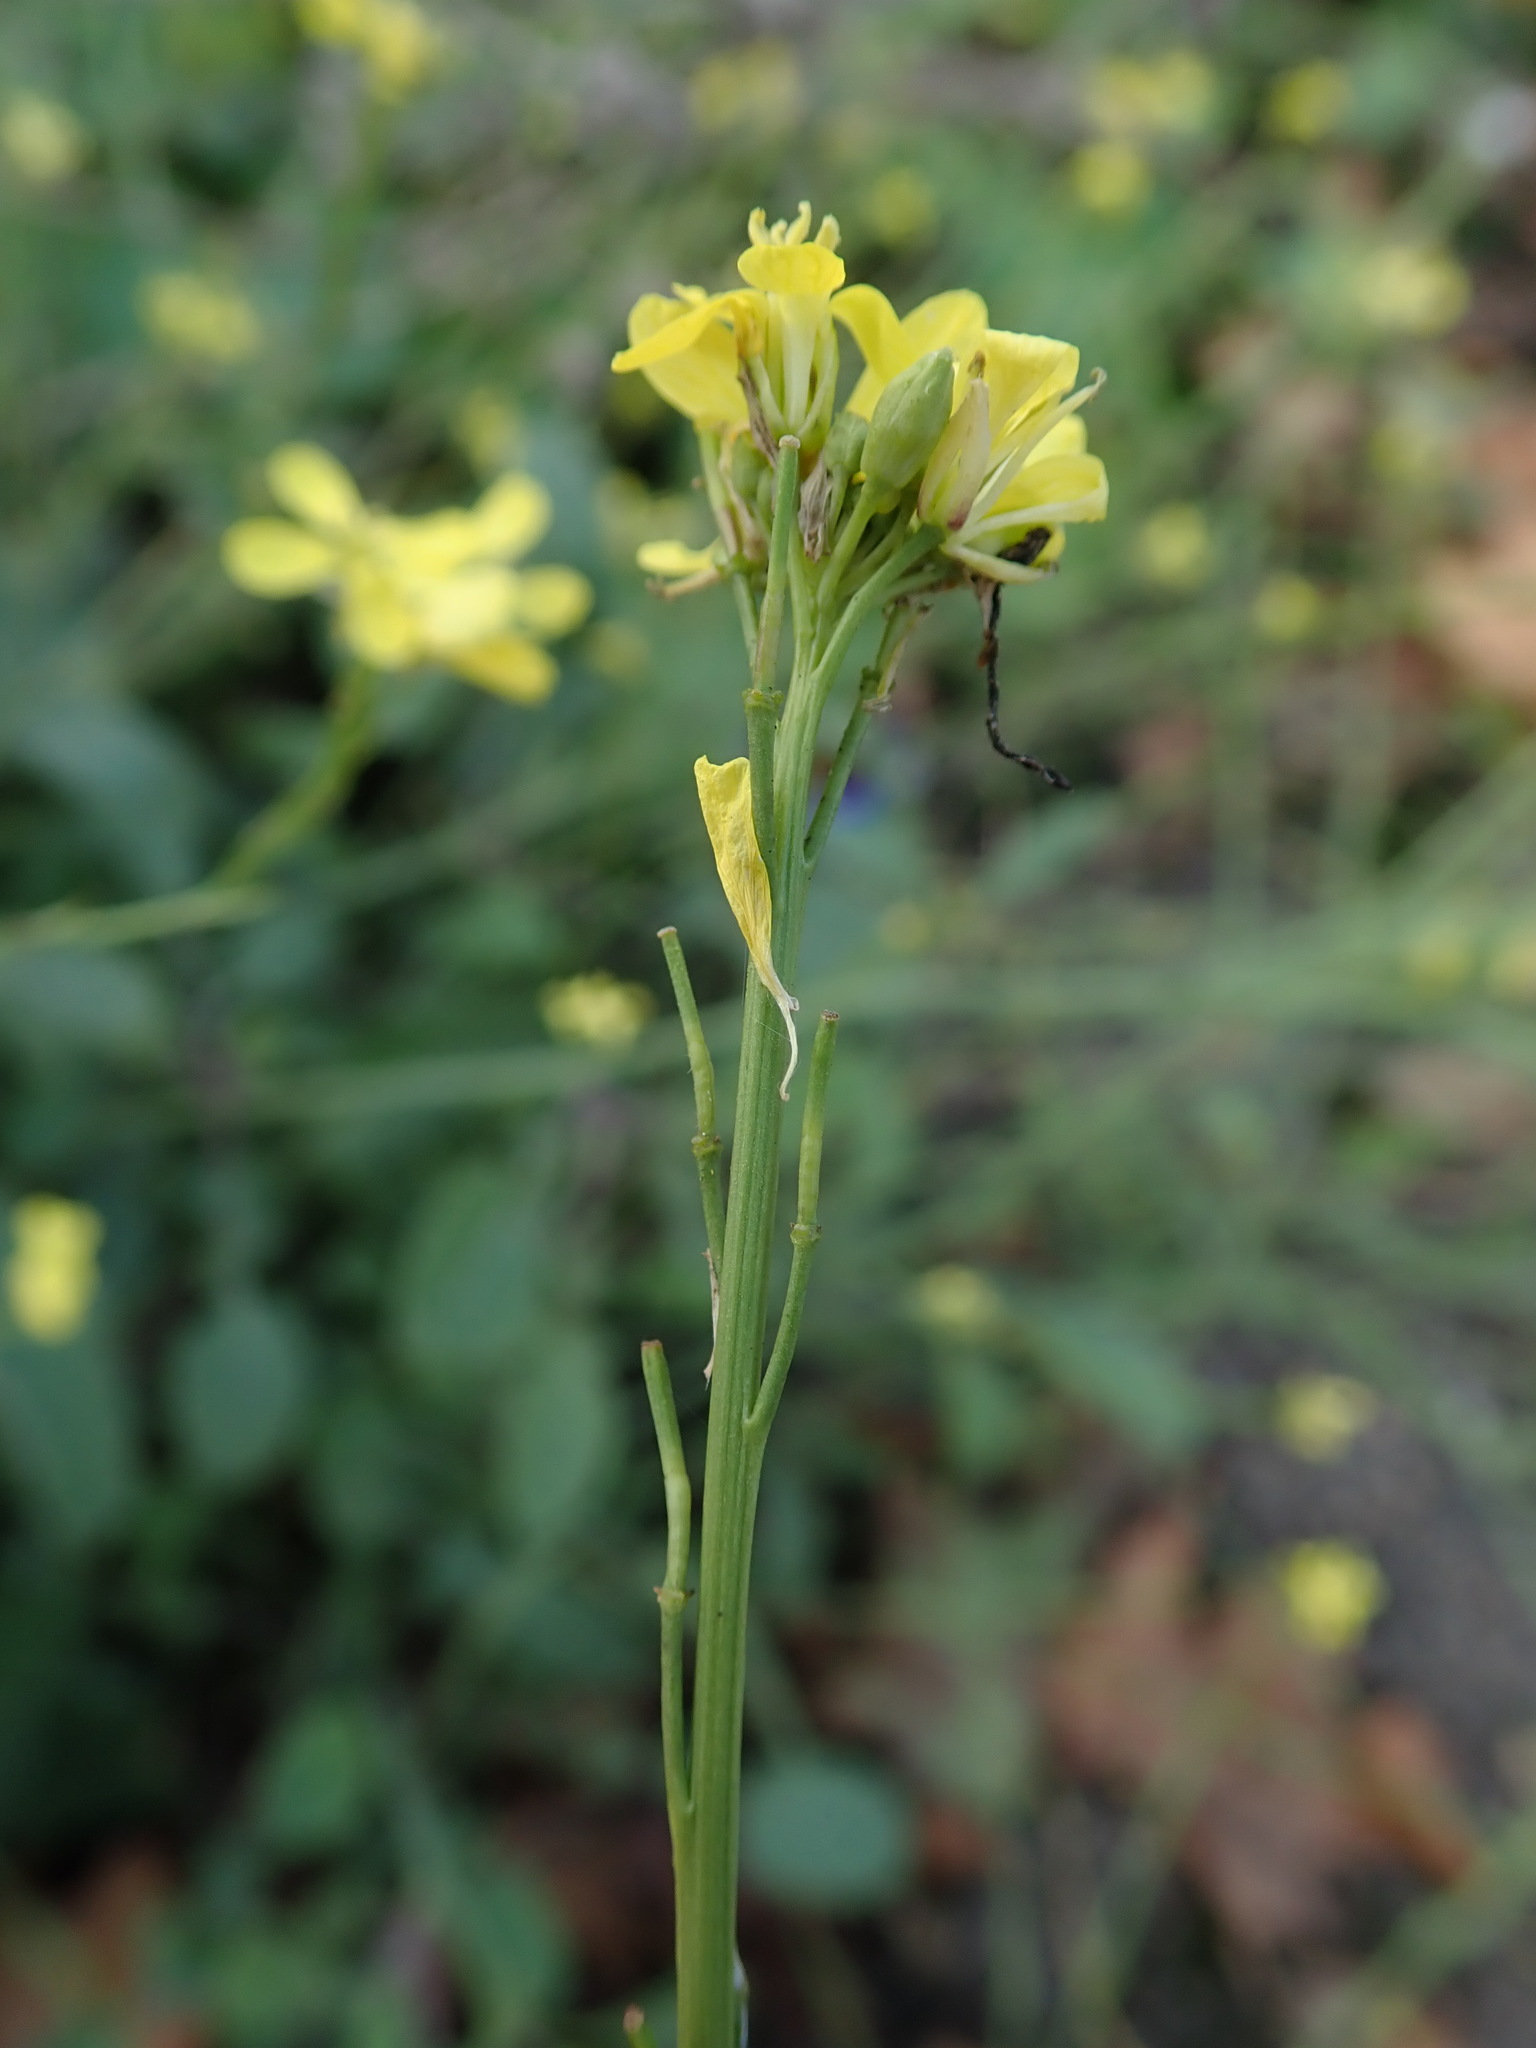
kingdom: Plantae
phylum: Tracheophyta
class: Magnoliopsida
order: Brassicales
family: Brassicaceae
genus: Hirschfeldia
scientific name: Hirschfeldia incana
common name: Hoary mustard
